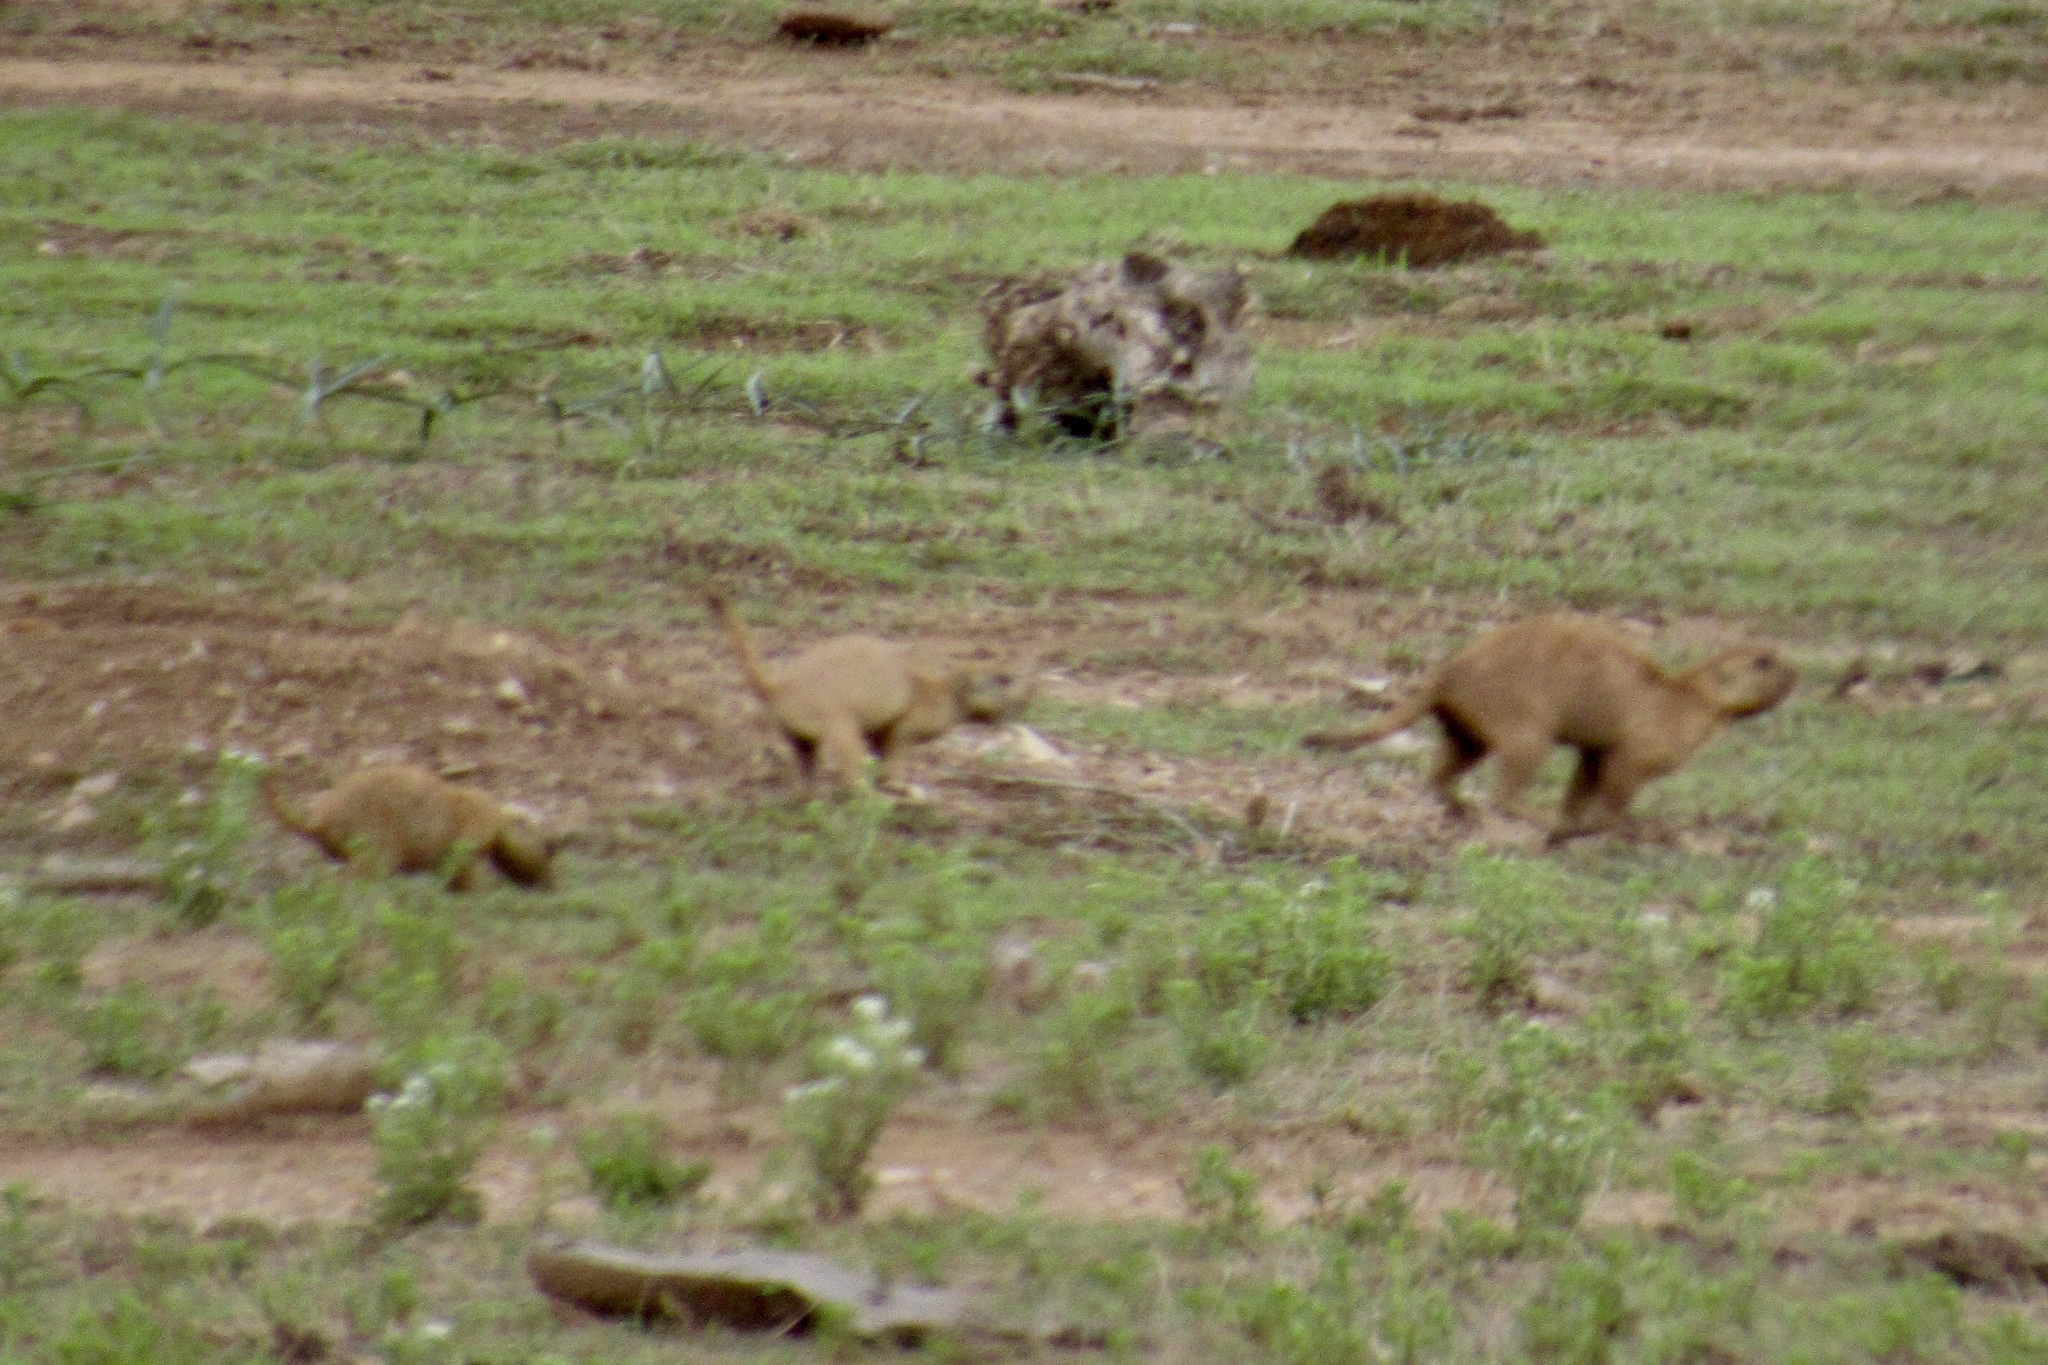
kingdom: Animalia
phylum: Chordata
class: Mammalia
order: Rodentia
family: Sciuridae
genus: Cynomys
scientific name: Cynomys ludovicianus
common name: Black-tailed prairie dog
